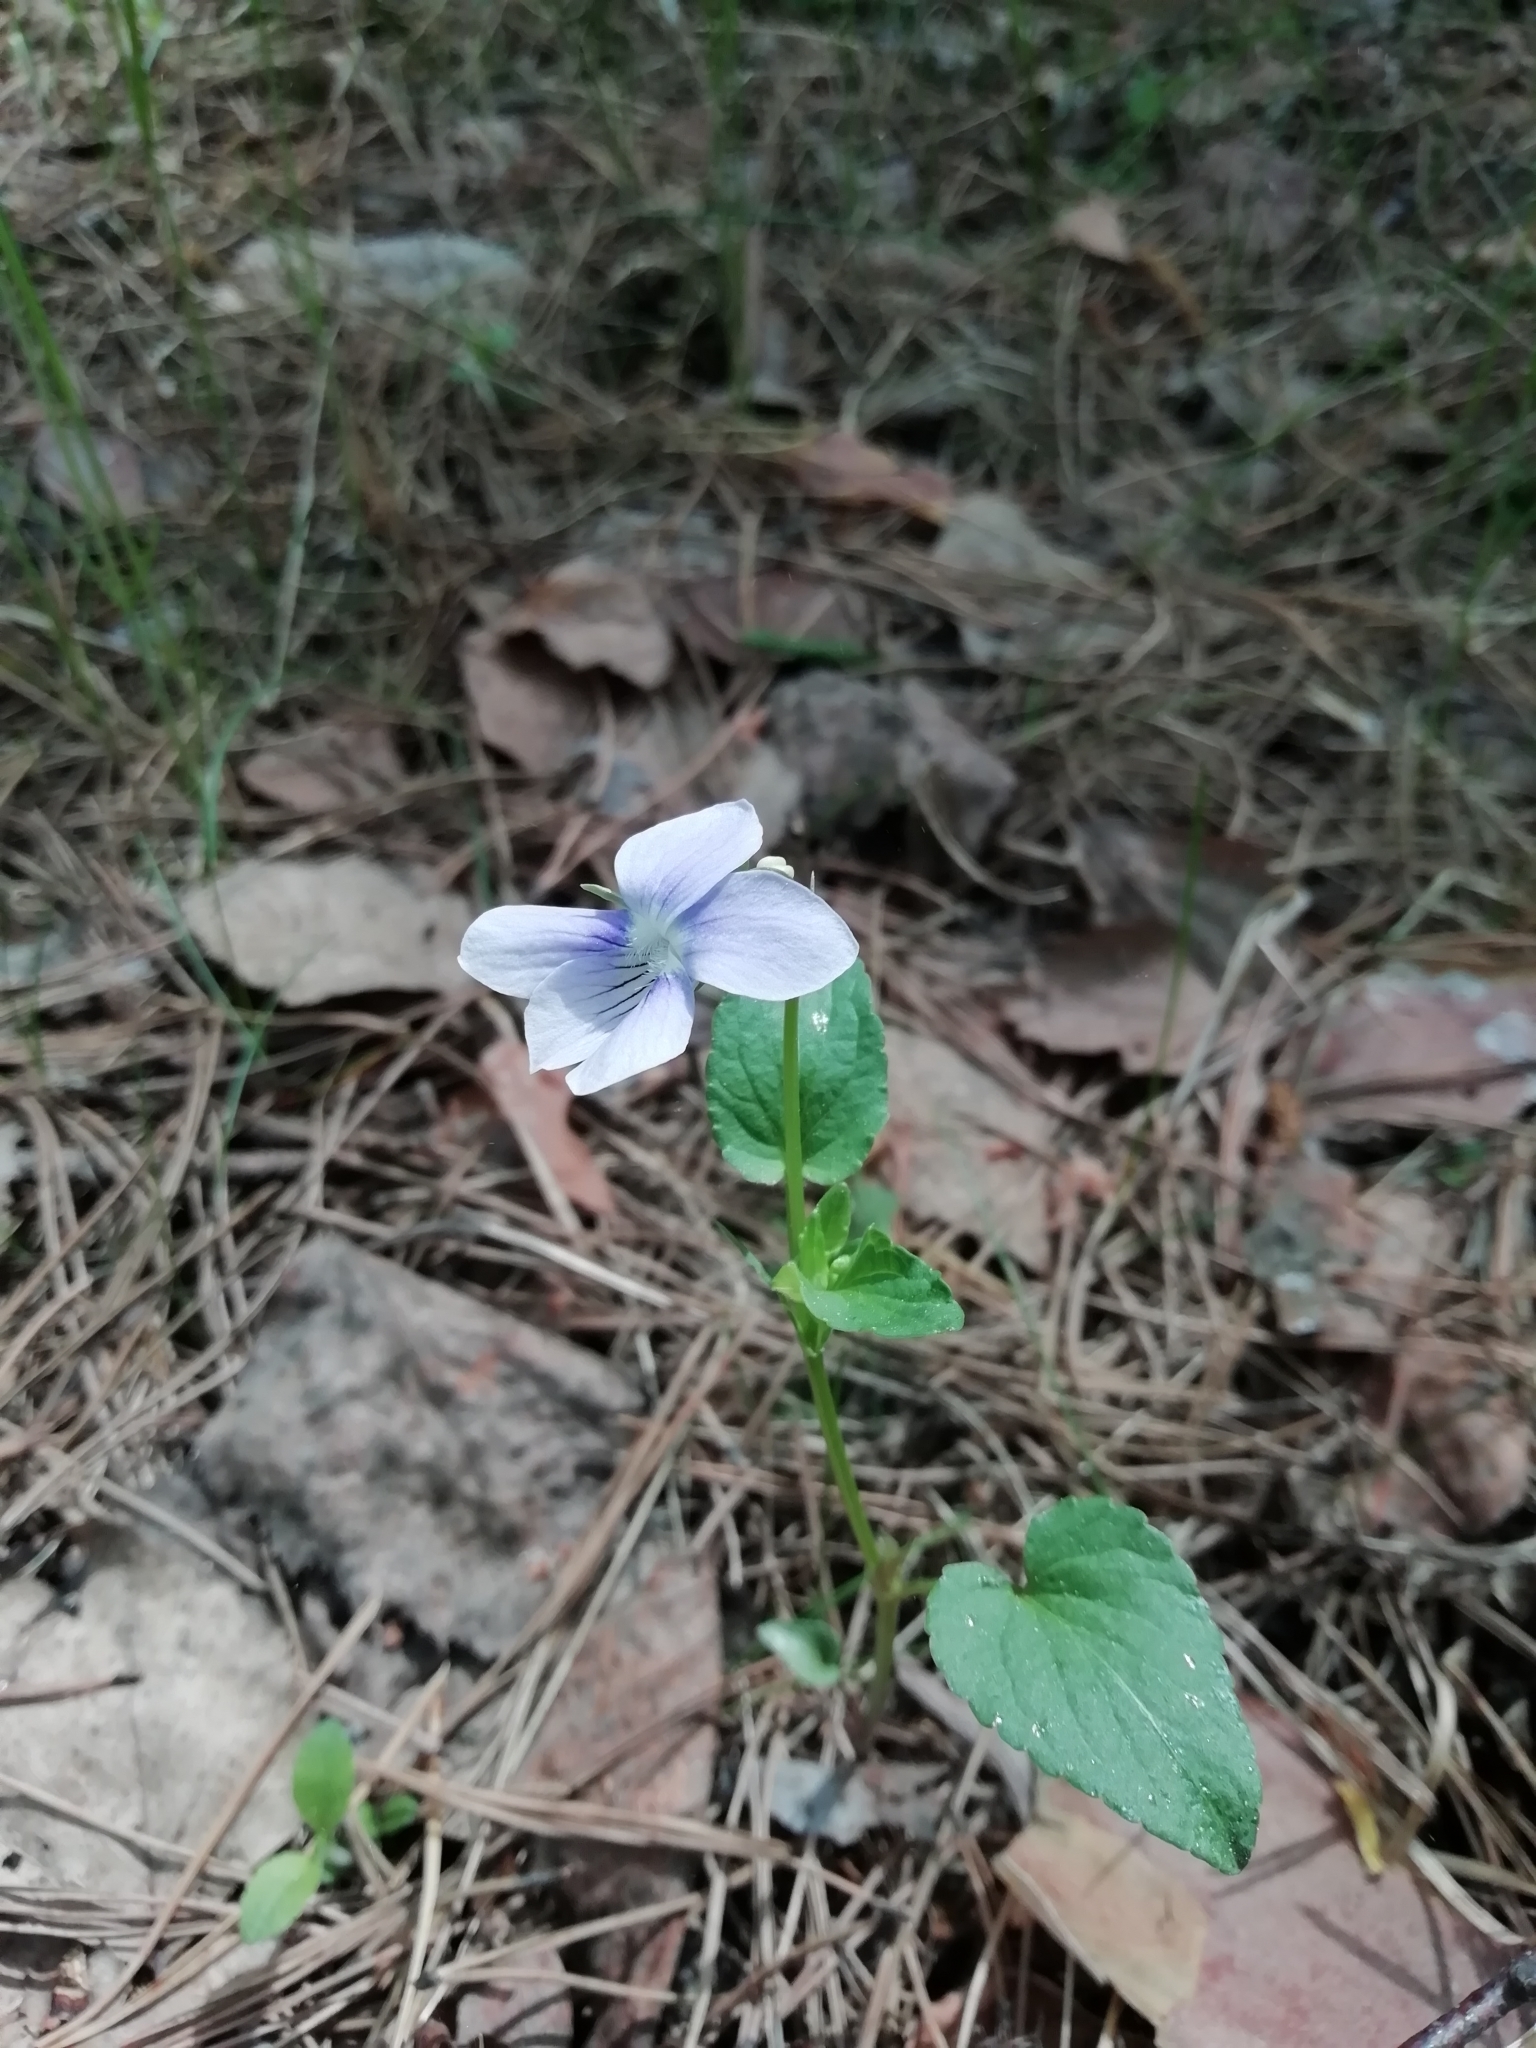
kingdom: Plantae
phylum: Tracheophyta
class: Magnoliopsida
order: Malpighiales
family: Violaceae
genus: Viola
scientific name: Viola
